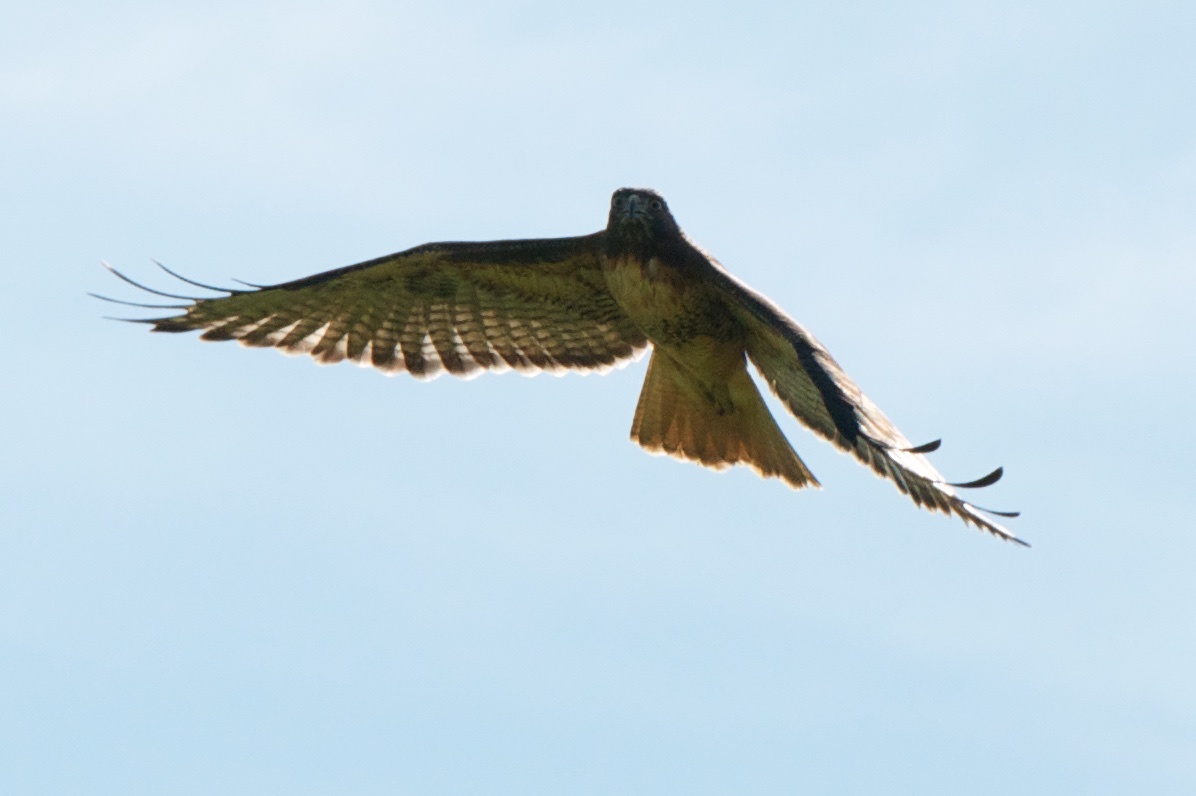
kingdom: Animalia
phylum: Chordata
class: Aves
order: Accipitriformes
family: Accipitridae
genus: Buteo
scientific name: Buteo jamaicensis
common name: Red-tailed hawk
